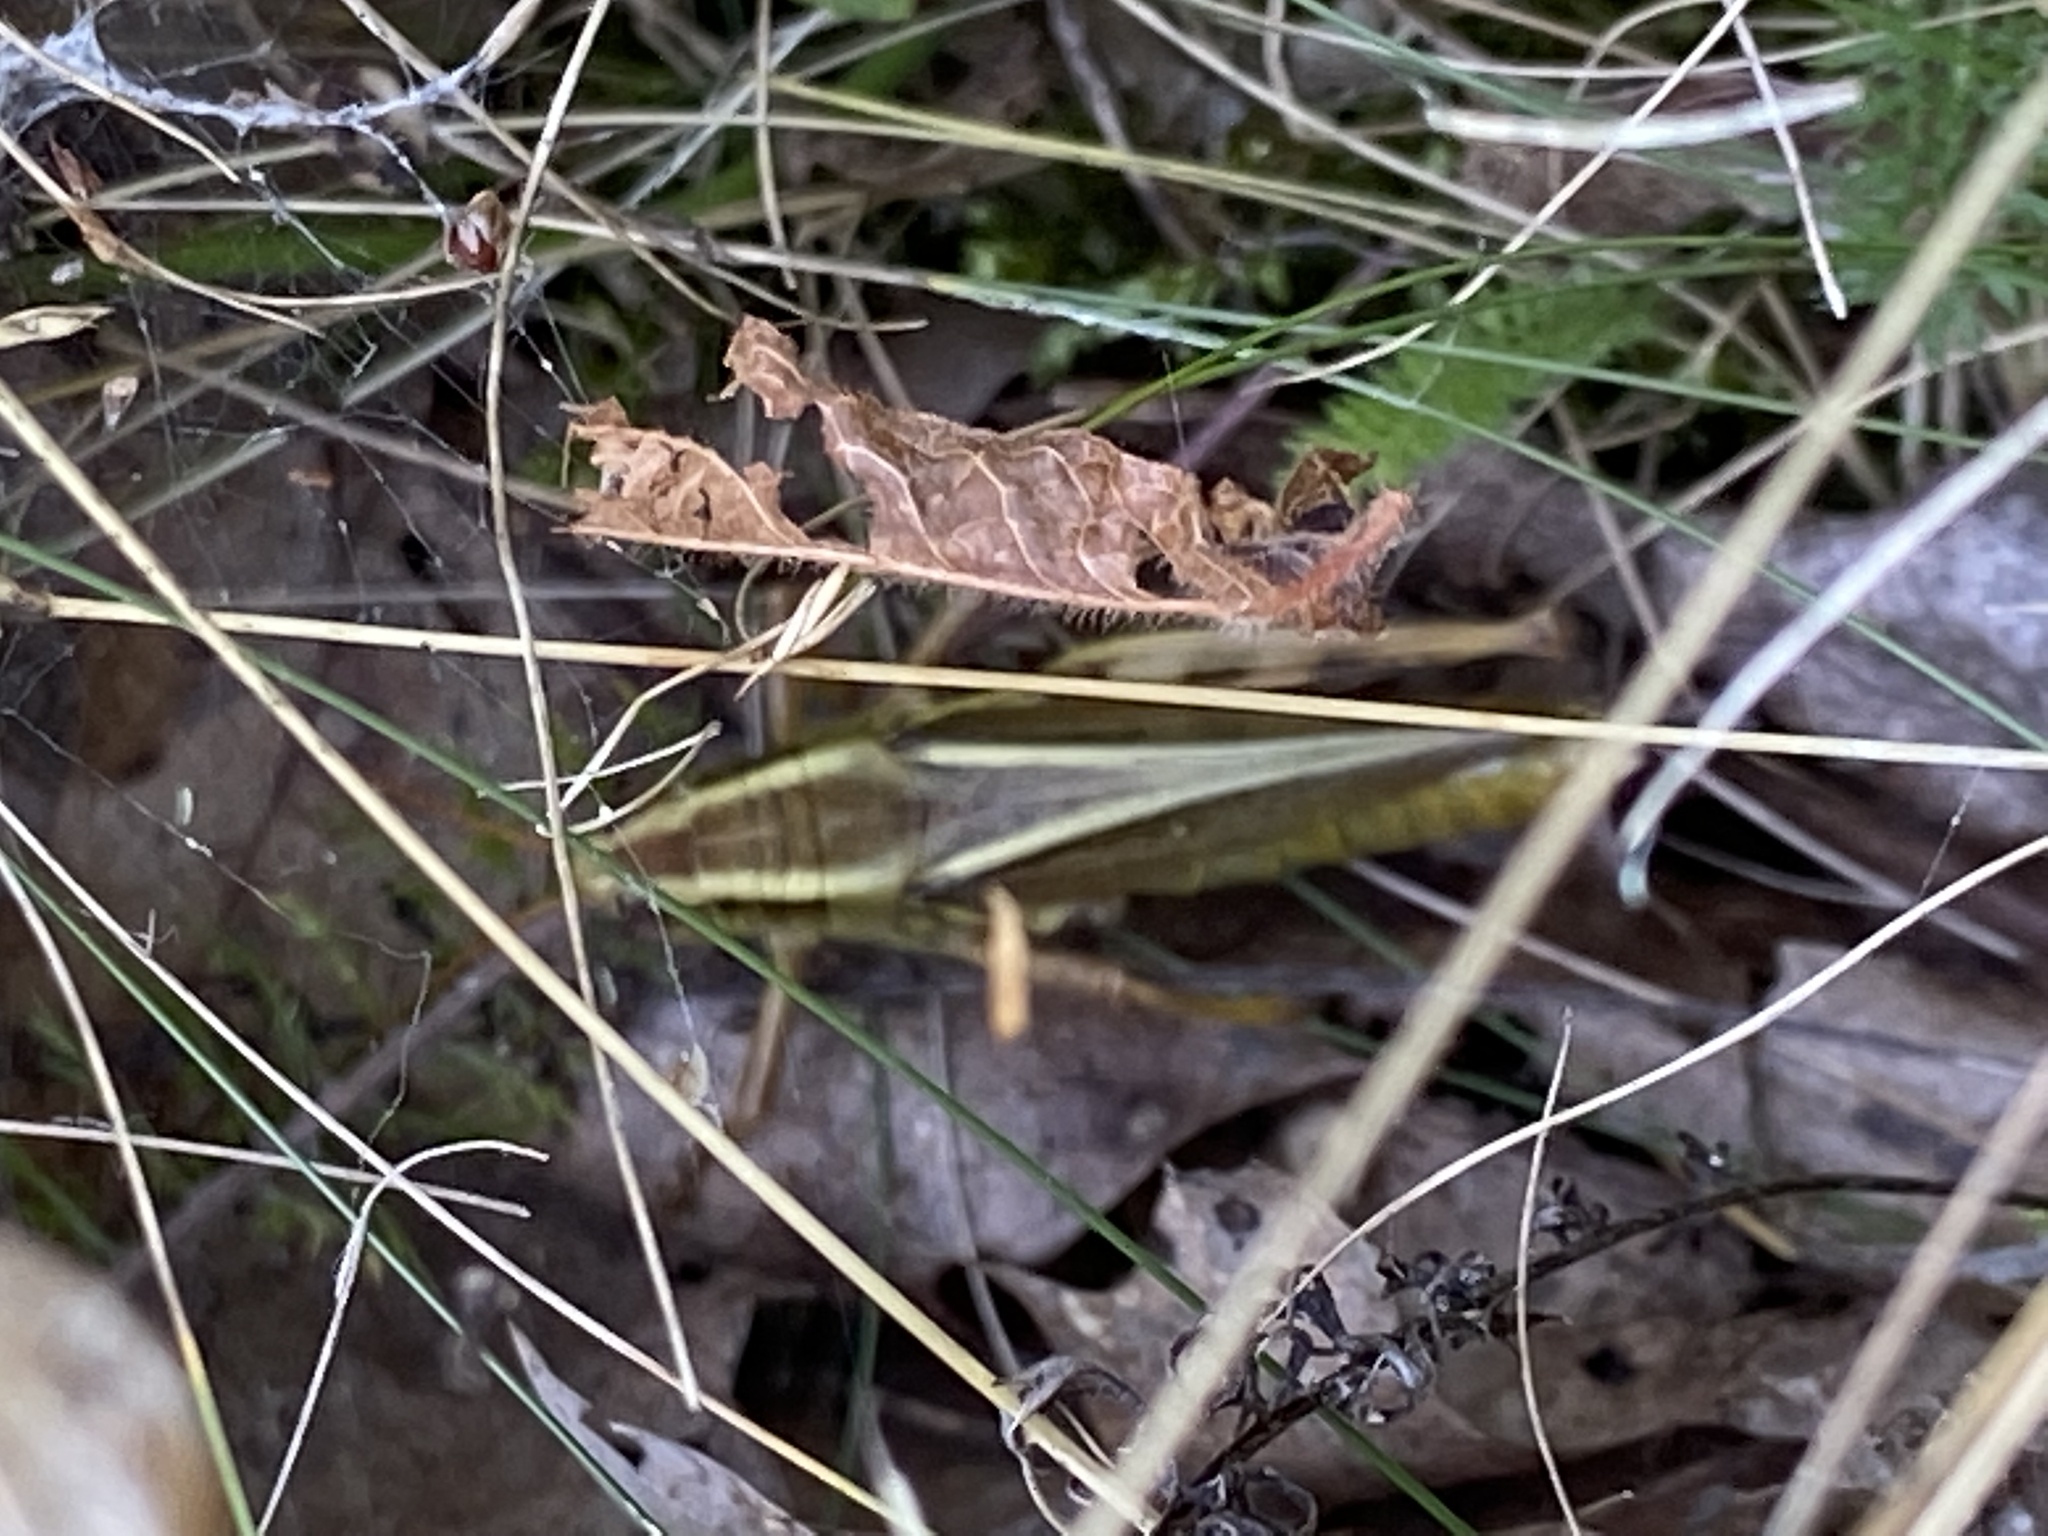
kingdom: Animalia
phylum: Arthropoda
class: Insecta
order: Orthoptera
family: Acrididae
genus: Melanoplus
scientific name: Melanoplus bivittatus
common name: Two-striped grasshopper
